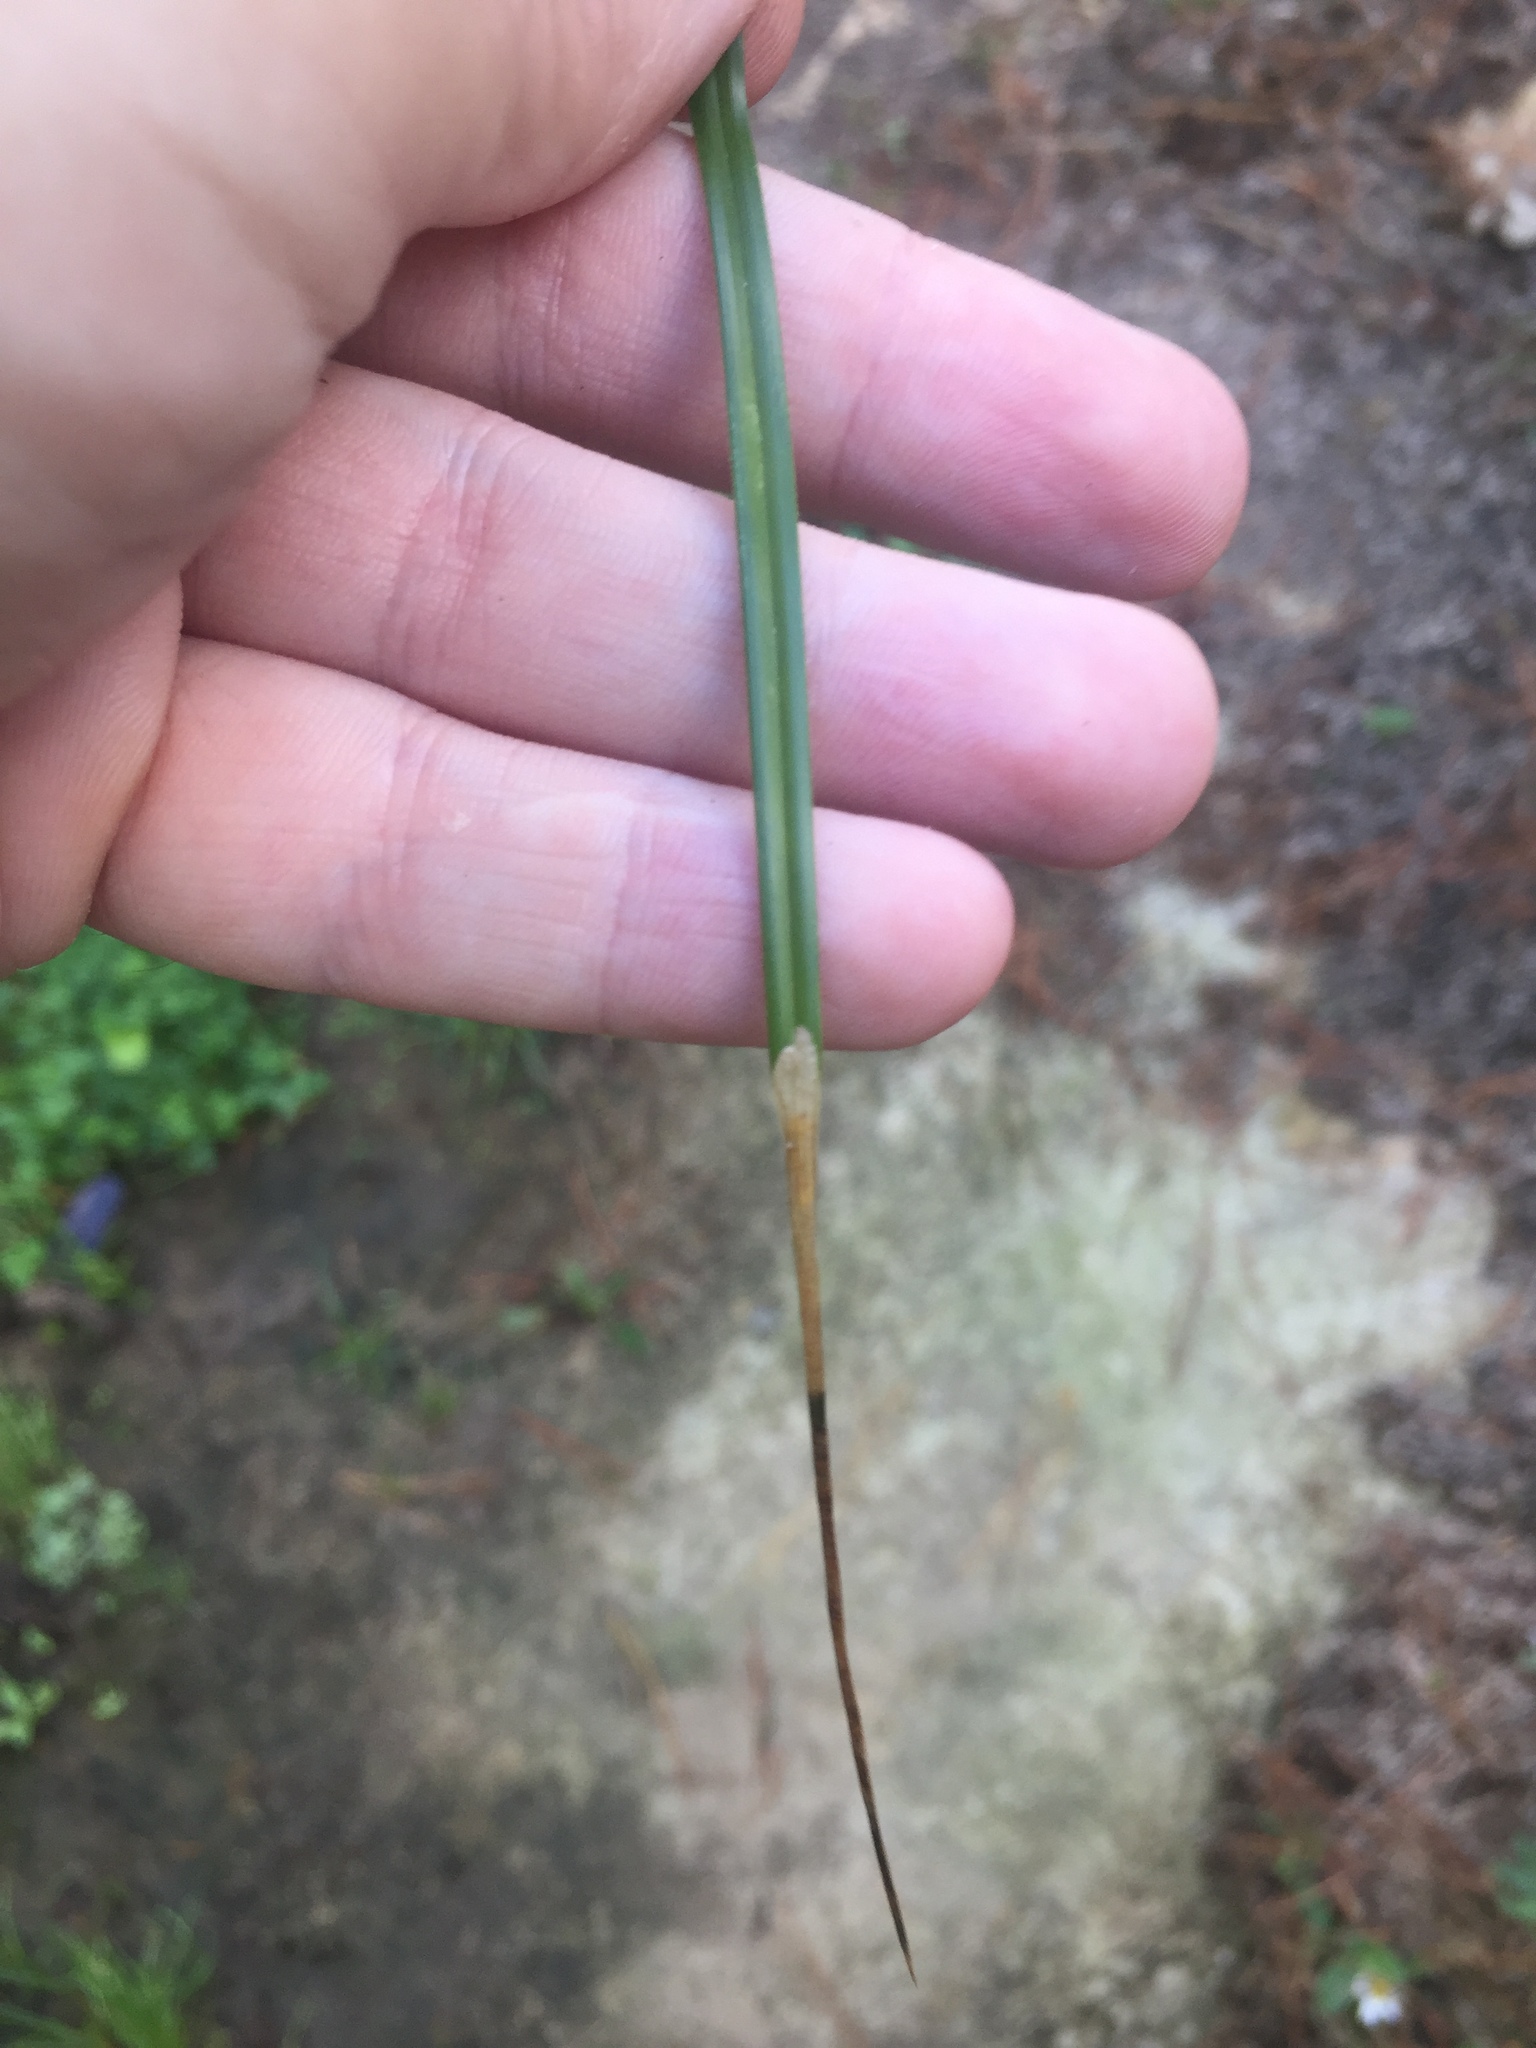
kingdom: Animalia
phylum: Arthropoda
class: Insecta
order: Lepidoptera
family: Cosmopterigidae
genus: Cosmopterix
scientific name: Cosmopterix attenuatella
